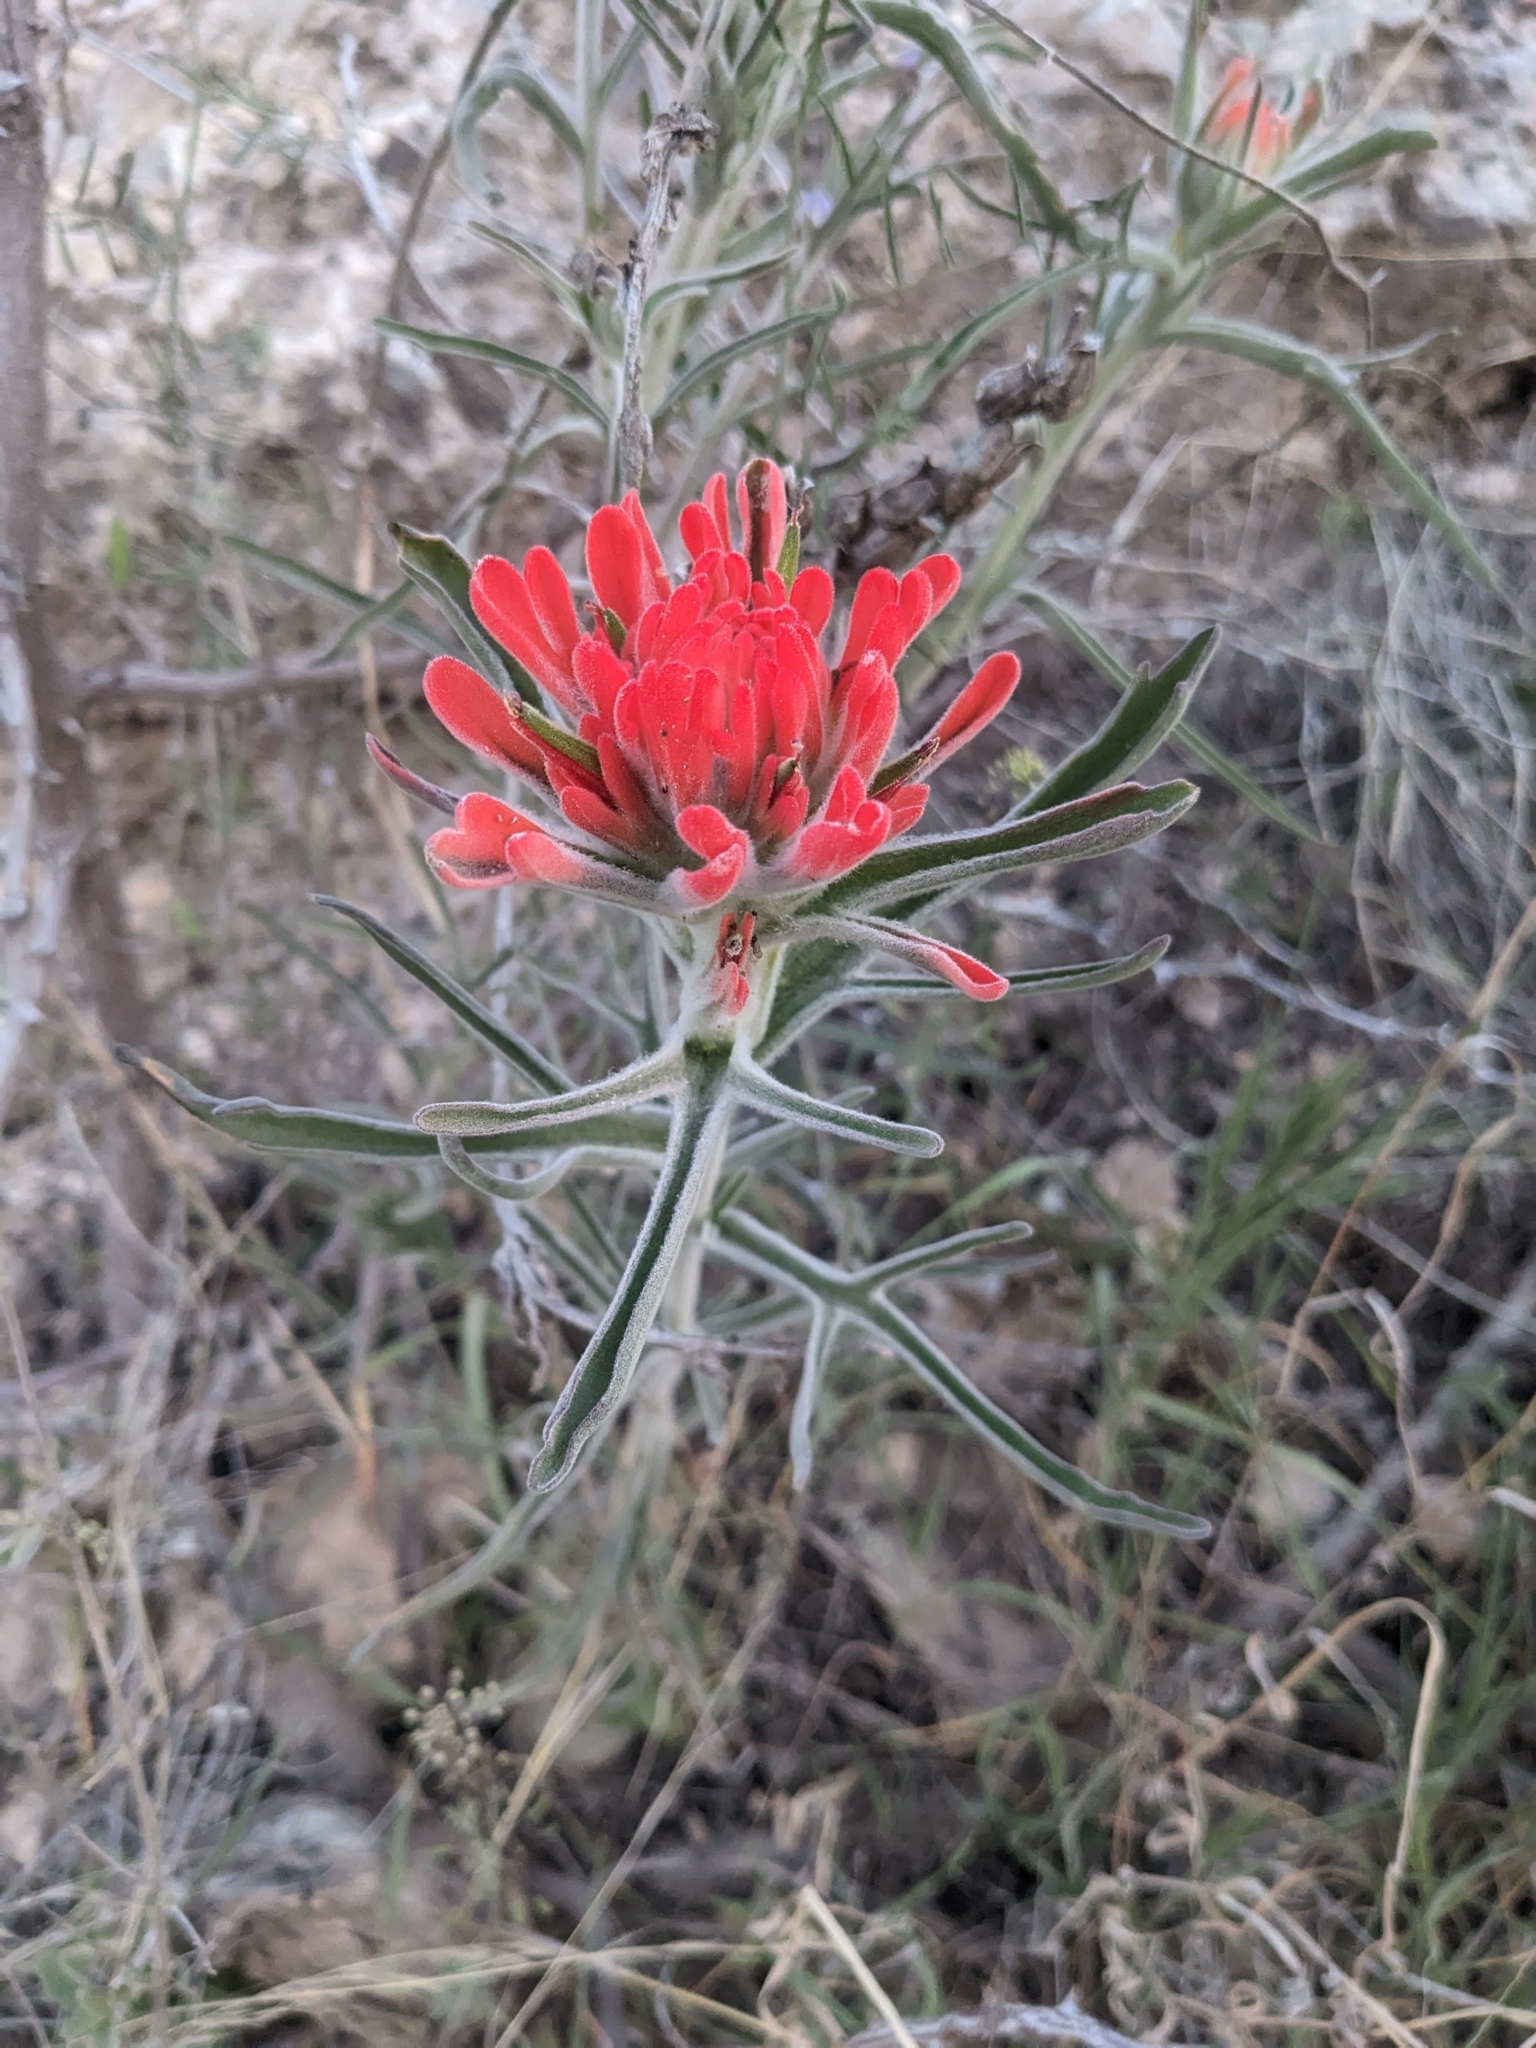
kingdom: Plantae
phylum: Tracheophyta
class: Magnoliopsida
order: Lamiales
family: Orobanchaceae
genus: Castilleja
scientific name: Castilleja lanata
